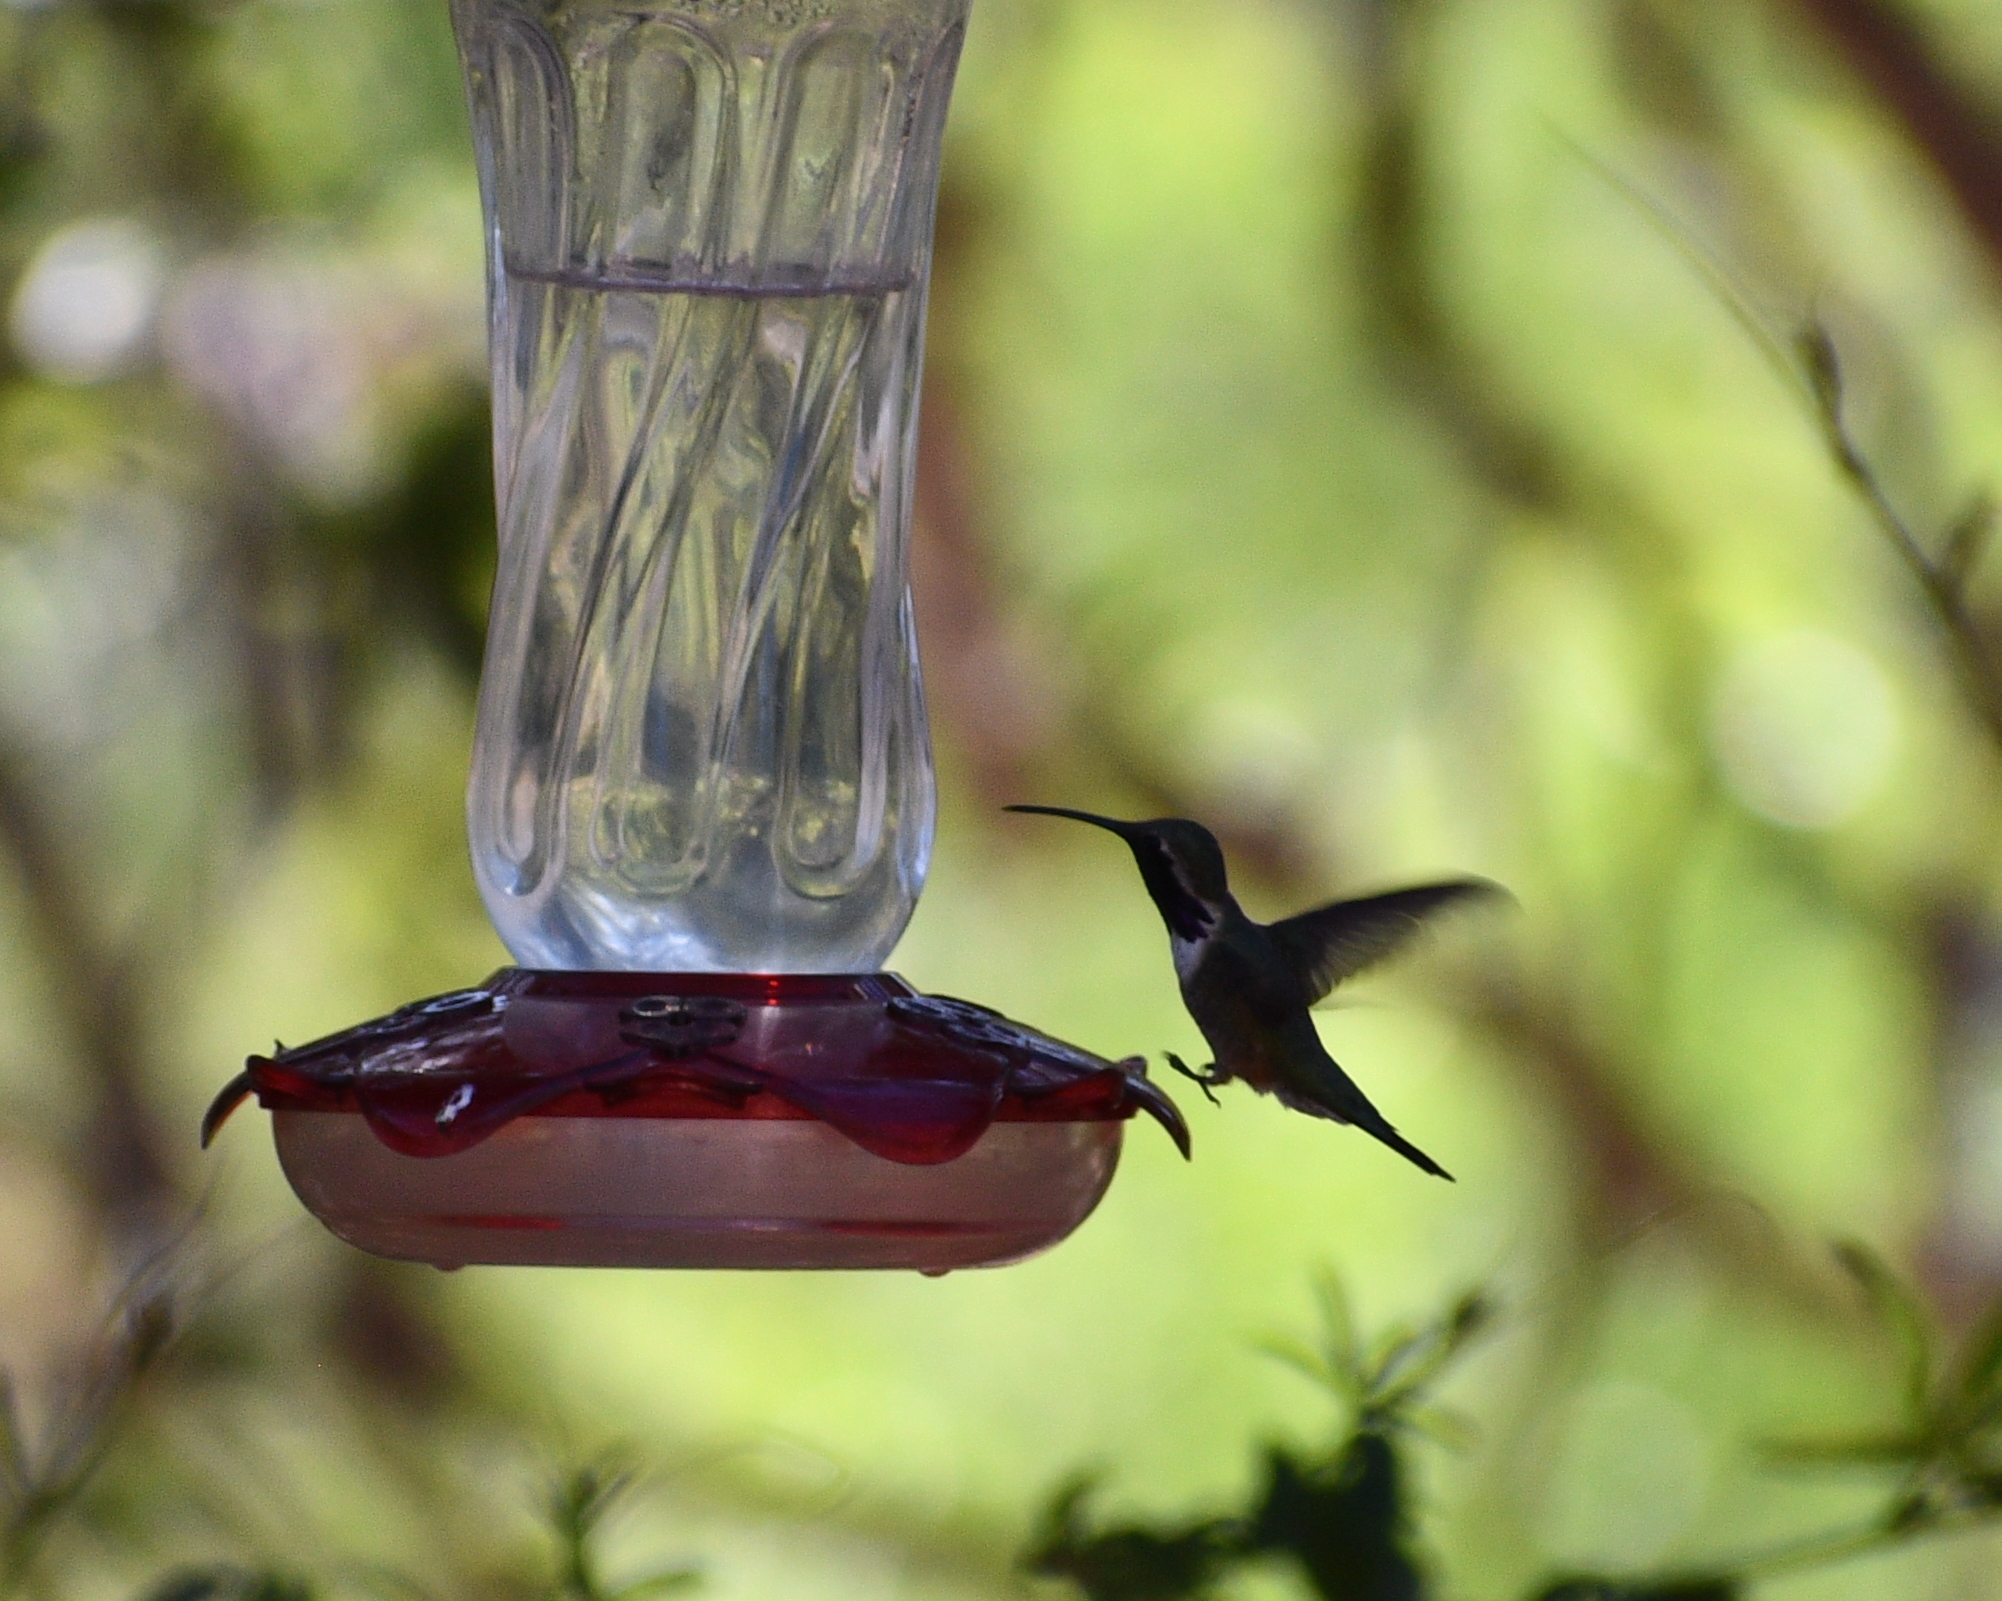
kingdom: Animalia
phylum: Chordata
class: Aves
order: Apodiformes
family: Trochilidae
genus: Calothorax
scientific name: Calothorax lucifer
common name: Lucifer sheartail
